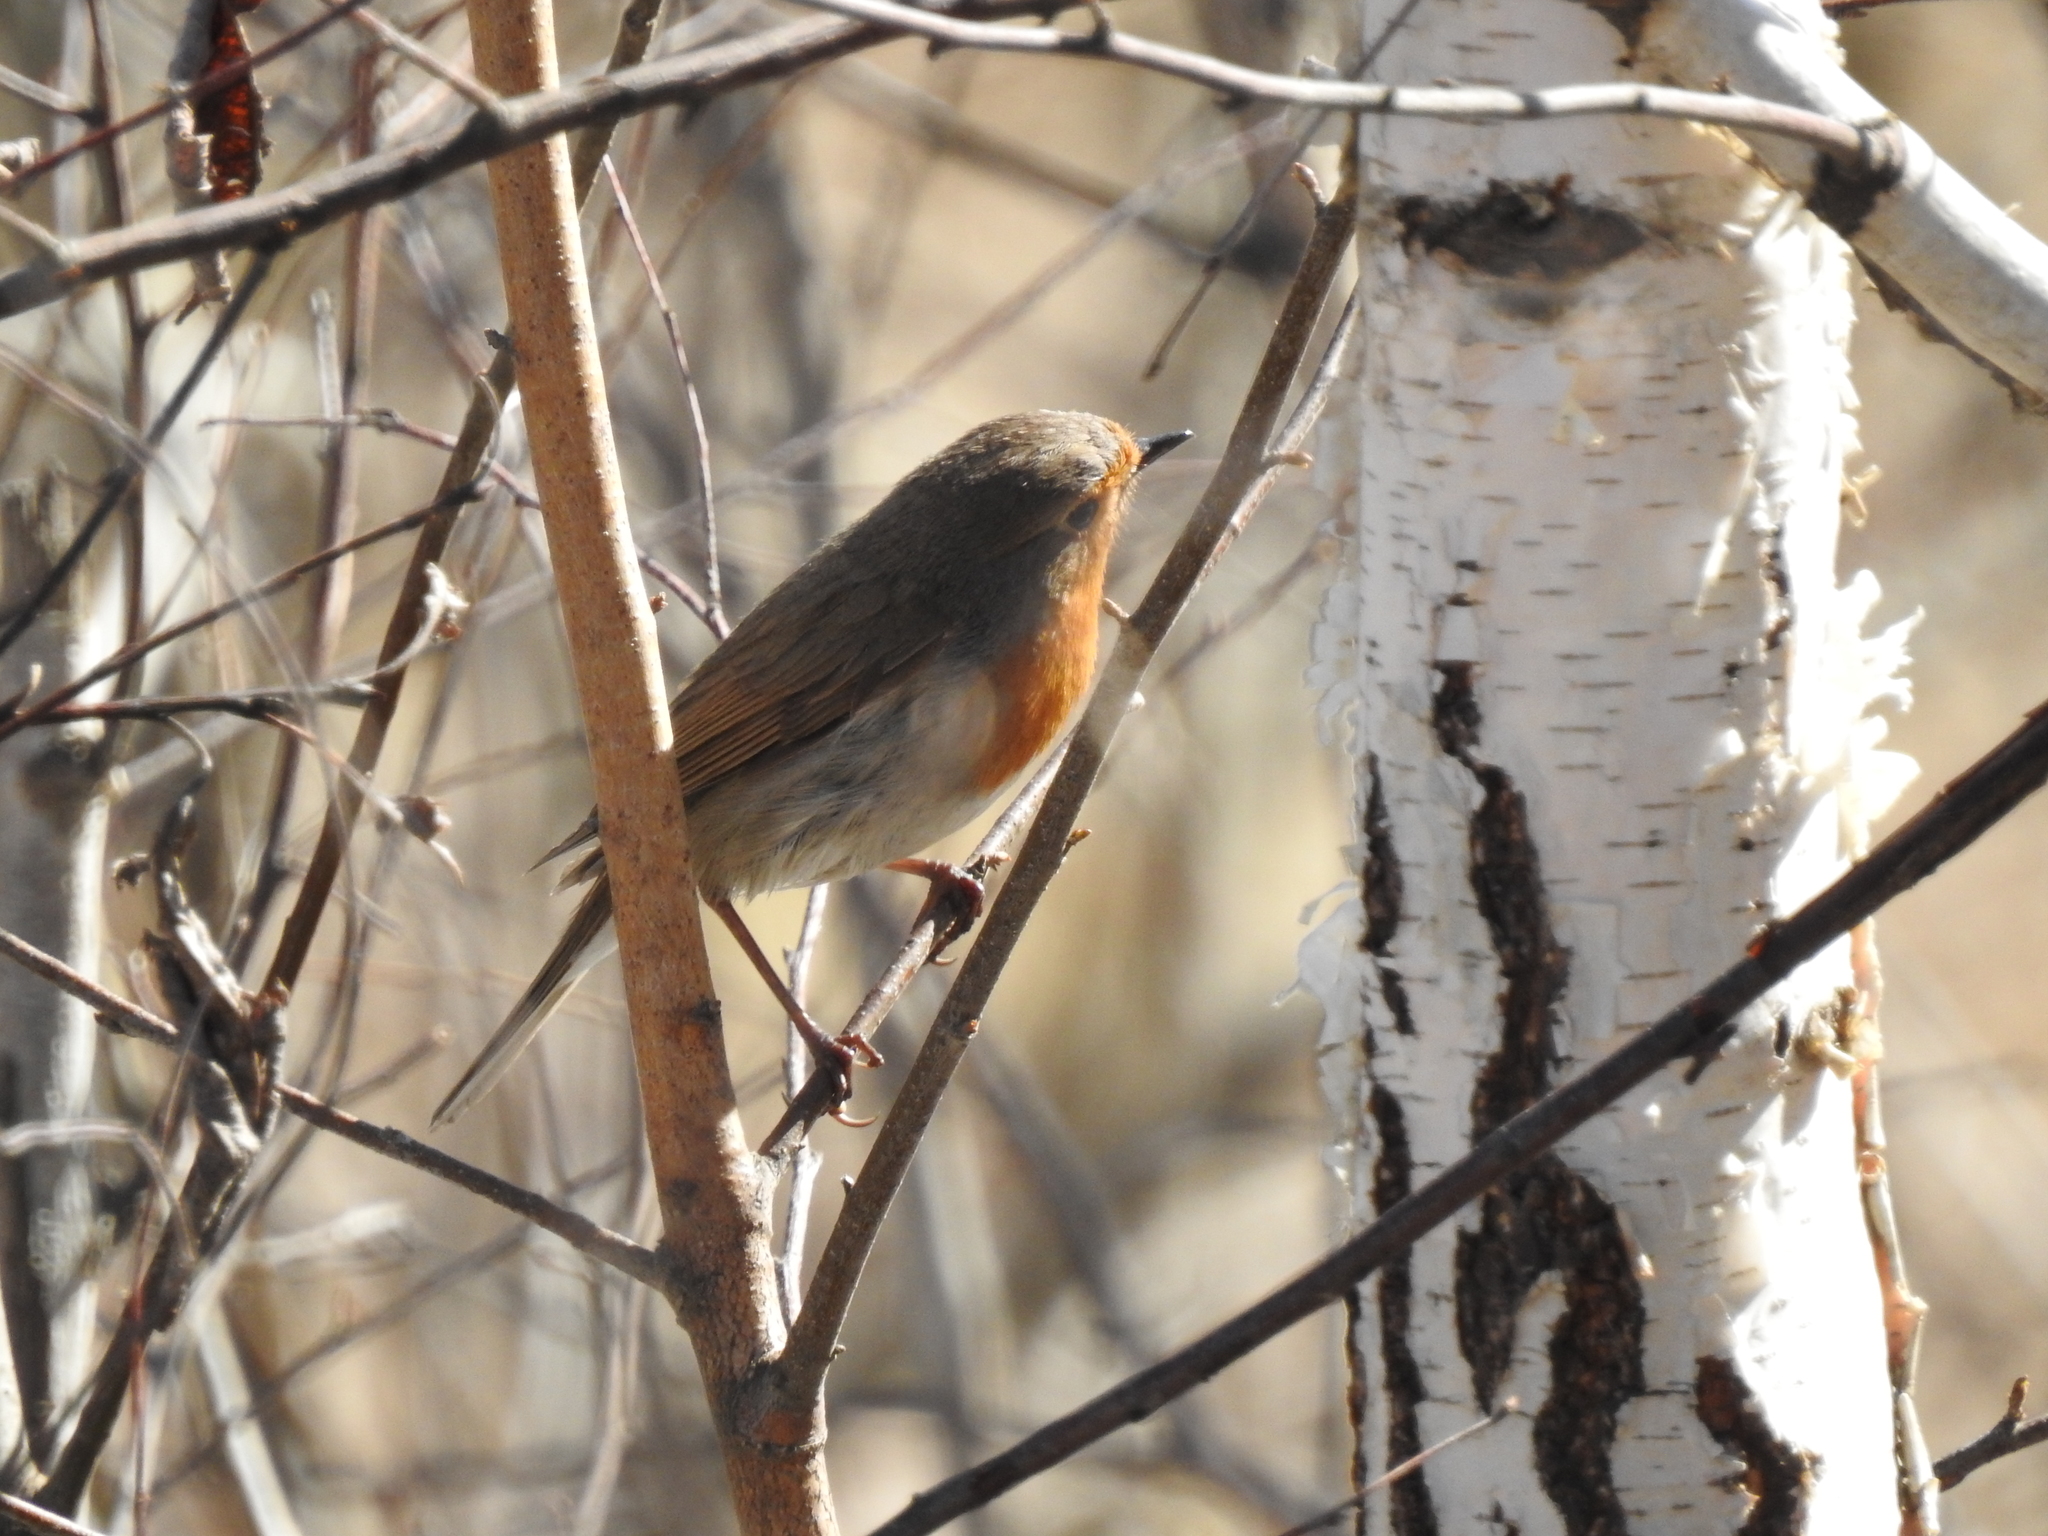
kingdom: Animalia
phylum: Chordata
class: Aves
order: Passeriformes
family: Muscicapidae
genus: Erithacus
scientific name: Erithacus rubecula
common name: European robin
